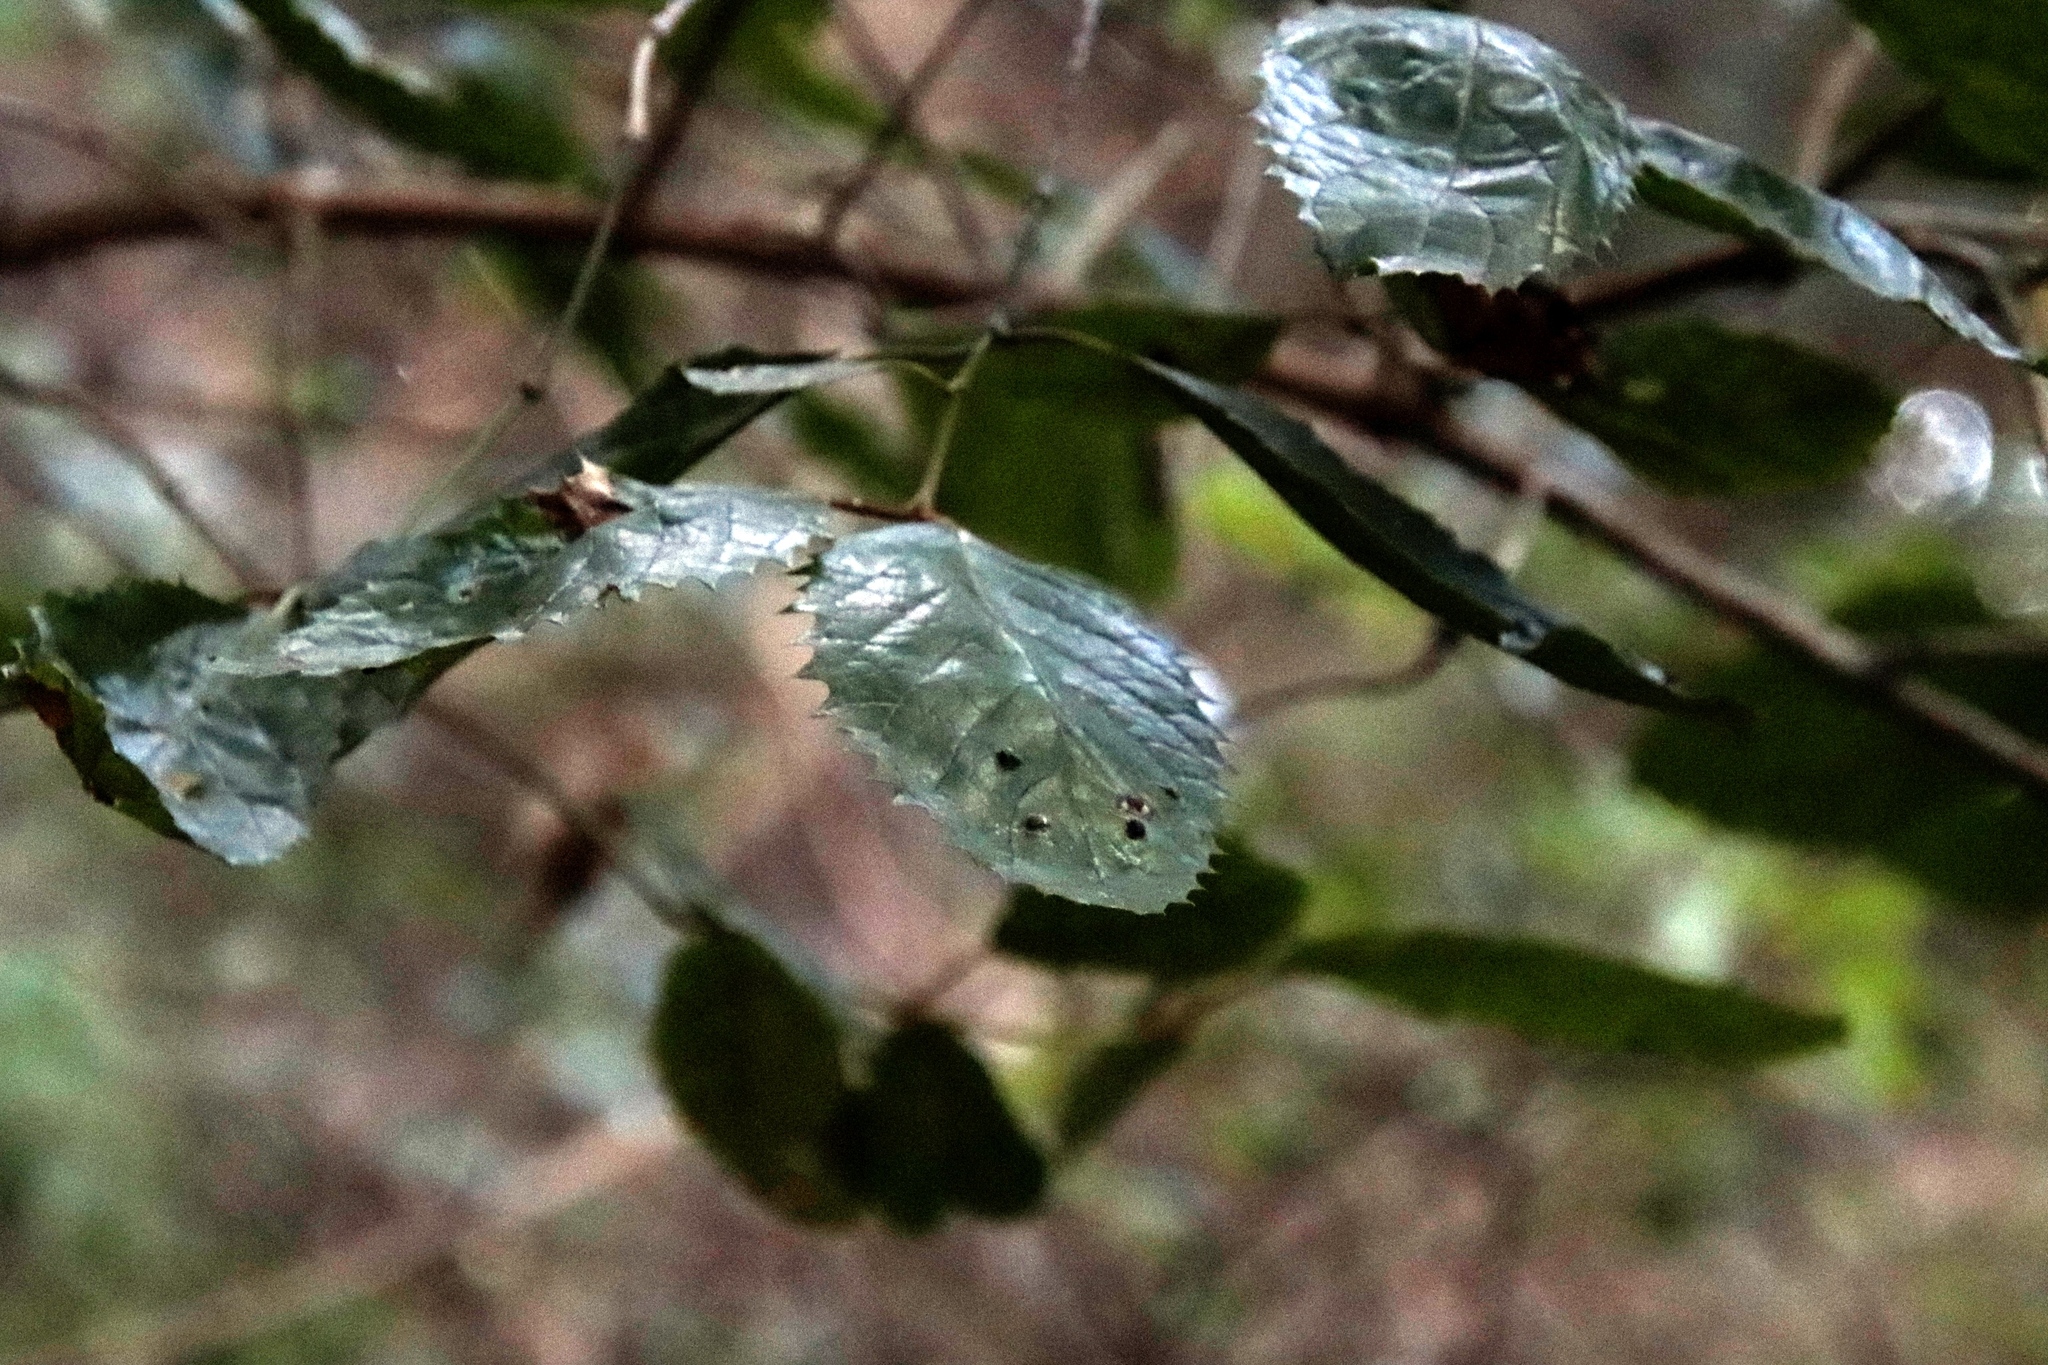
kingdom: Plantae
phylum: Tracheophyta
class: Magnoliopsida
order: Cornales
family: Curtisiaceae
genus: Curtisia
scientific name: Curtisia dentata
